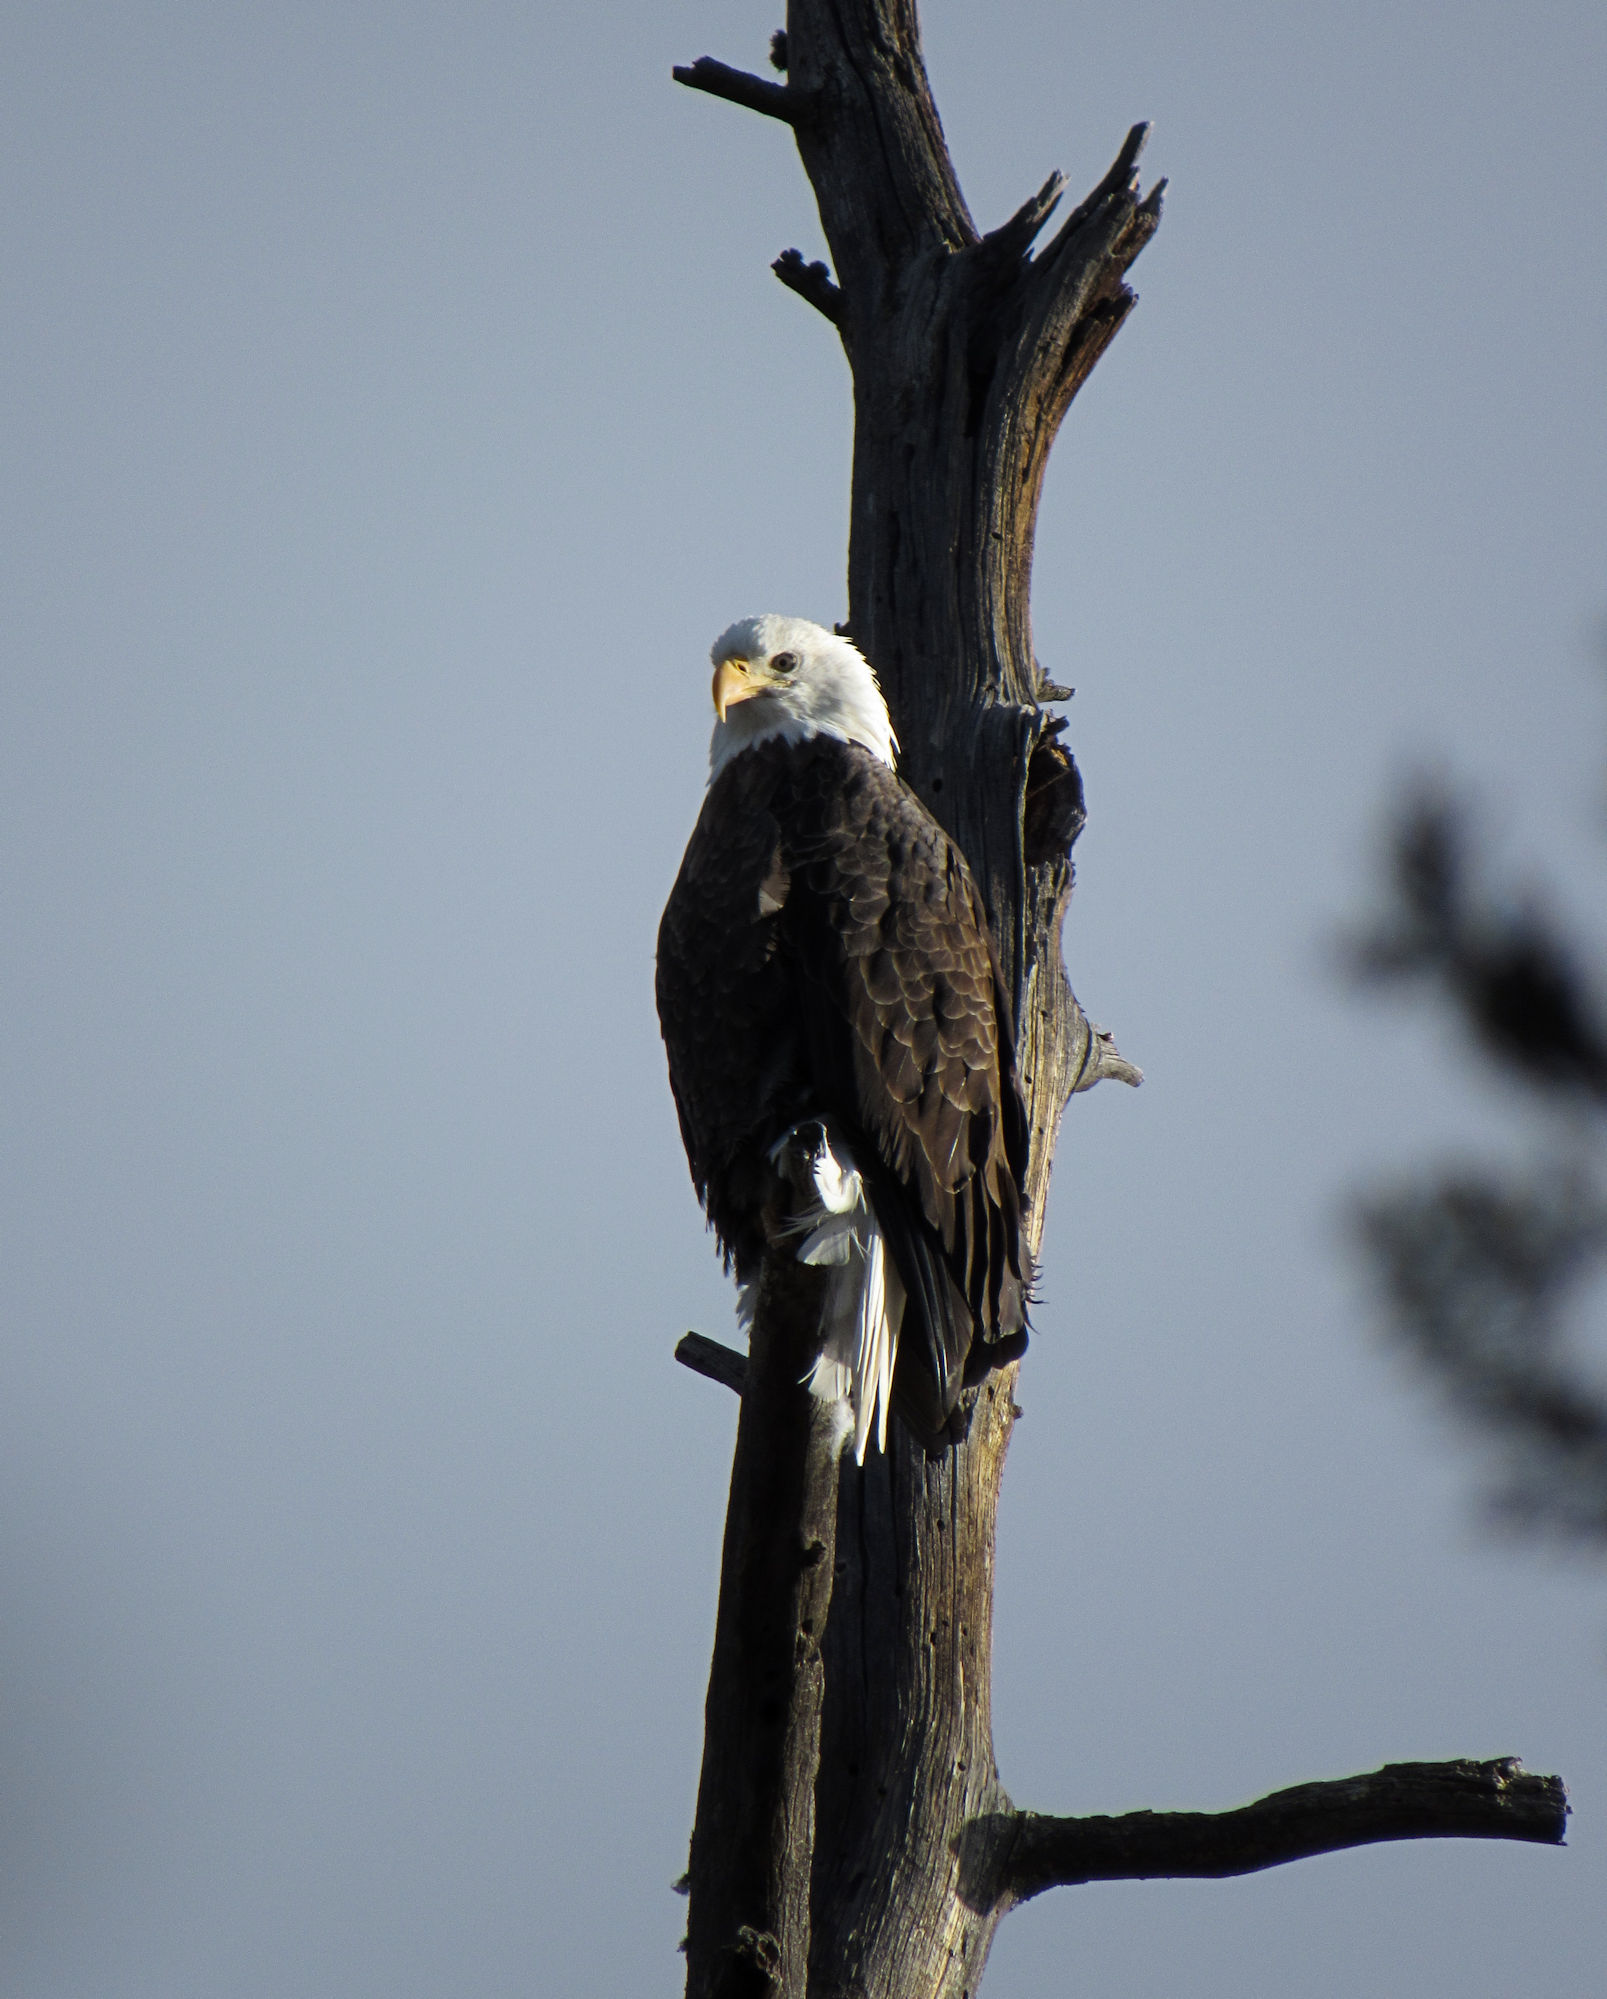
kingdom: Animalia
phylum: Chordata
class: Aves
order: Accipitriformes
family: Accipitridae
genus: Haliaeetus
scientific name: Haliaeetus leucocephalus
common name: Bald eagle
